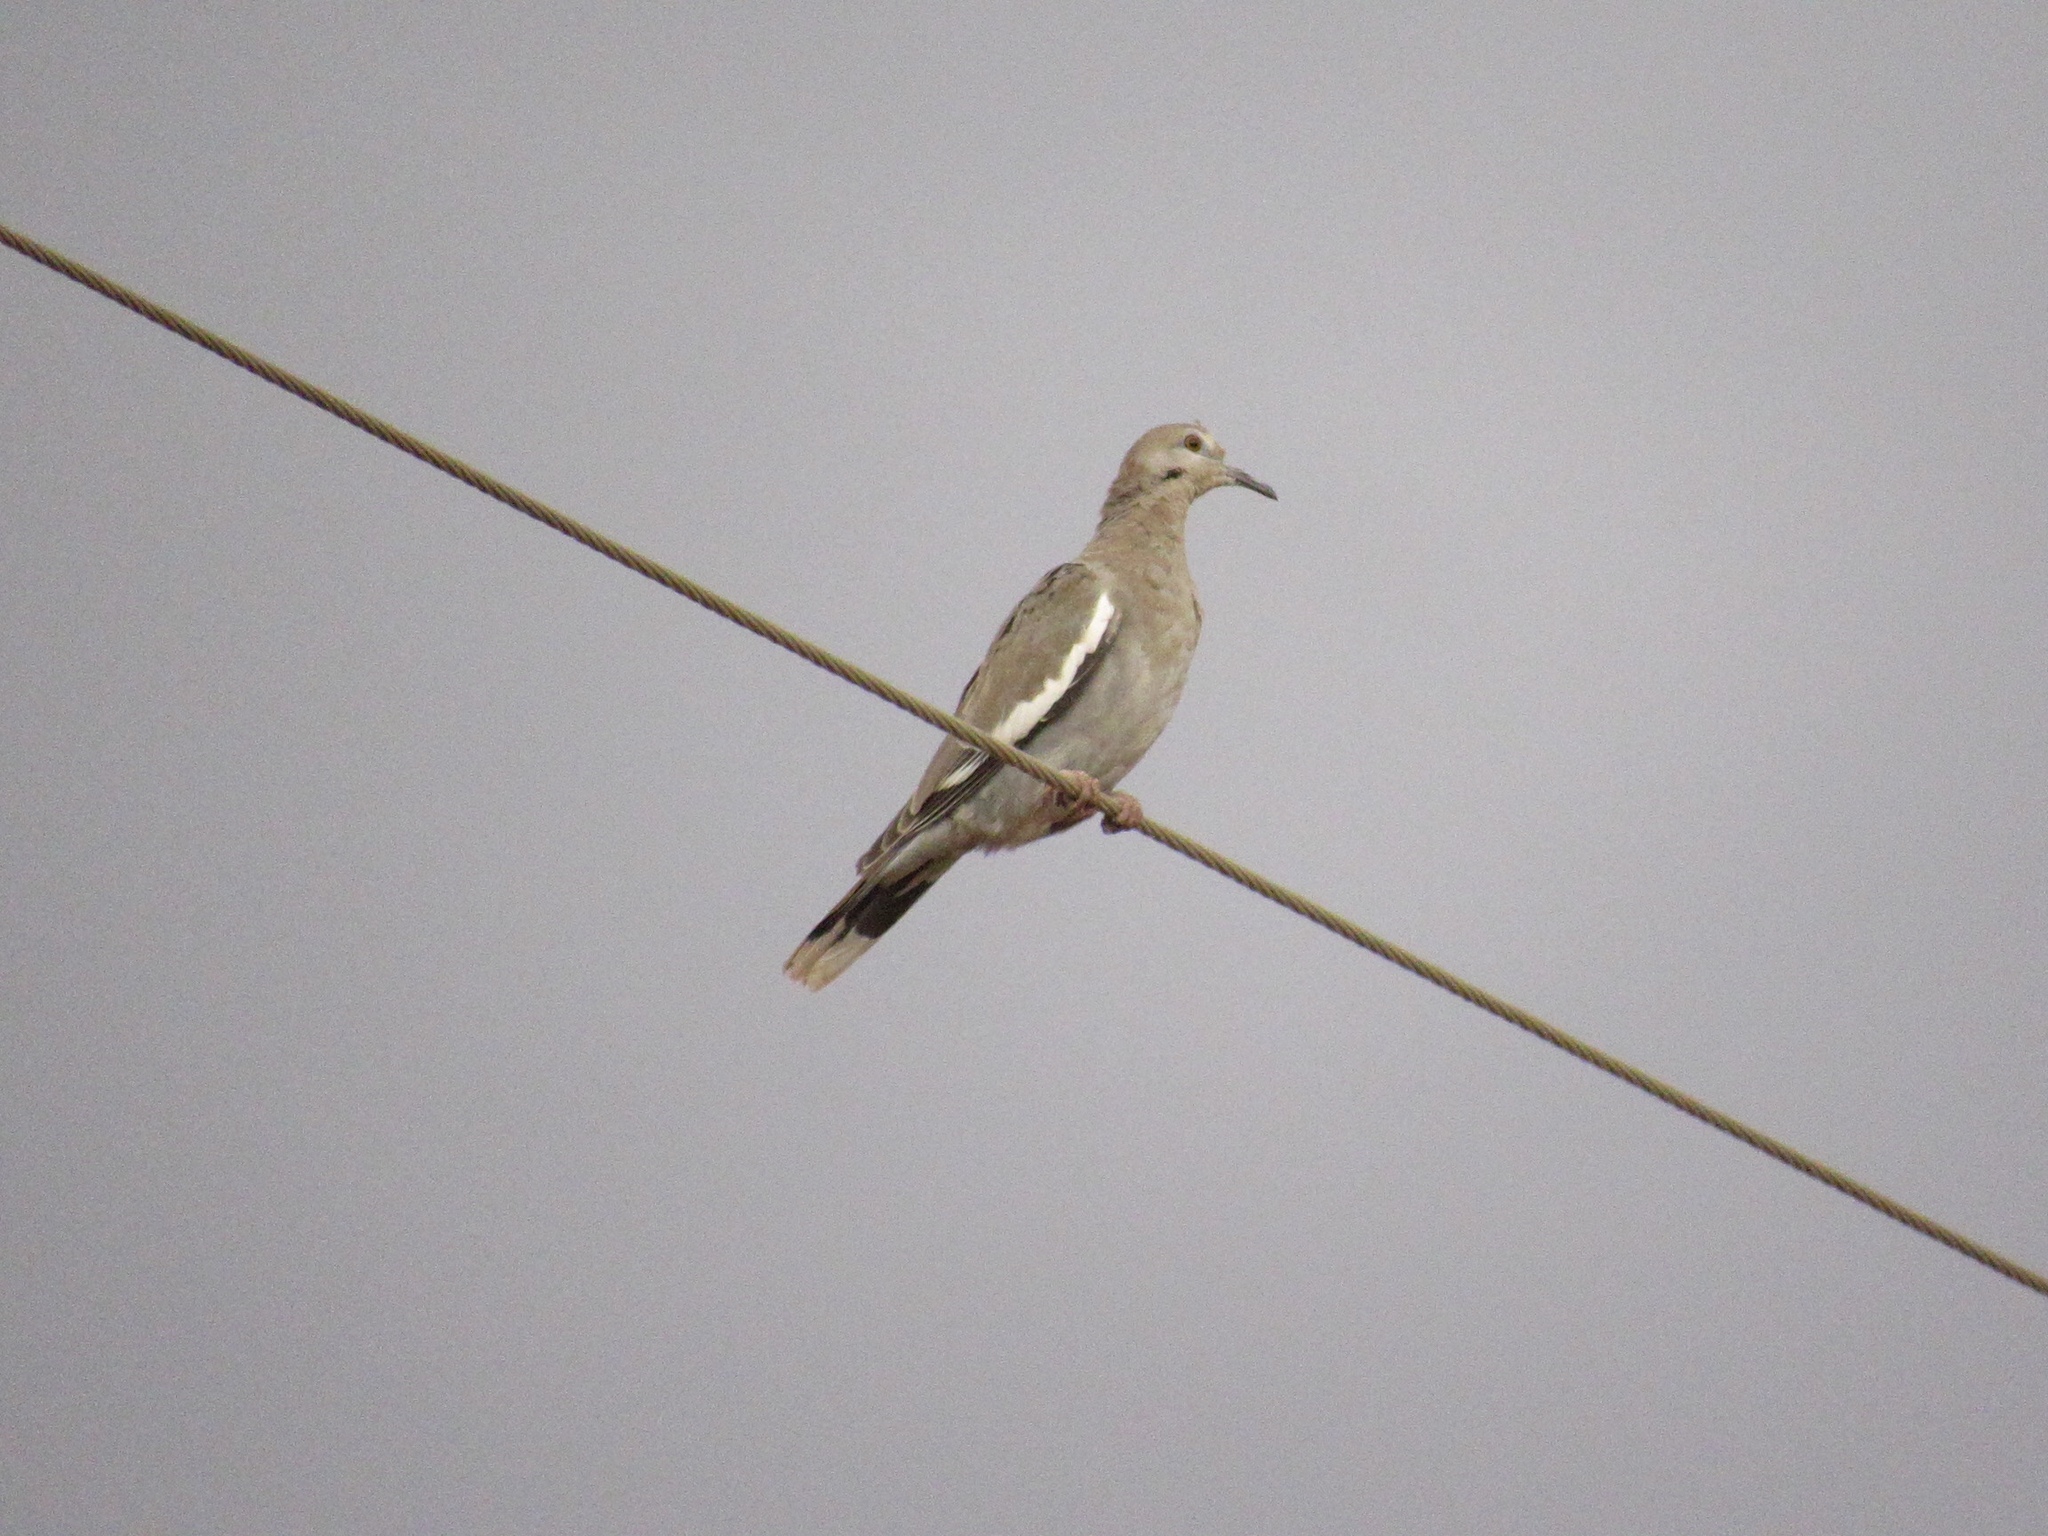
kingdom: Animalia
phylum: Chordata
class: Aves
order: Columbiformes
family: Columbidae
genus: Zenaida
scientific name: Zenaida asiatica
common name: White-winged dove
